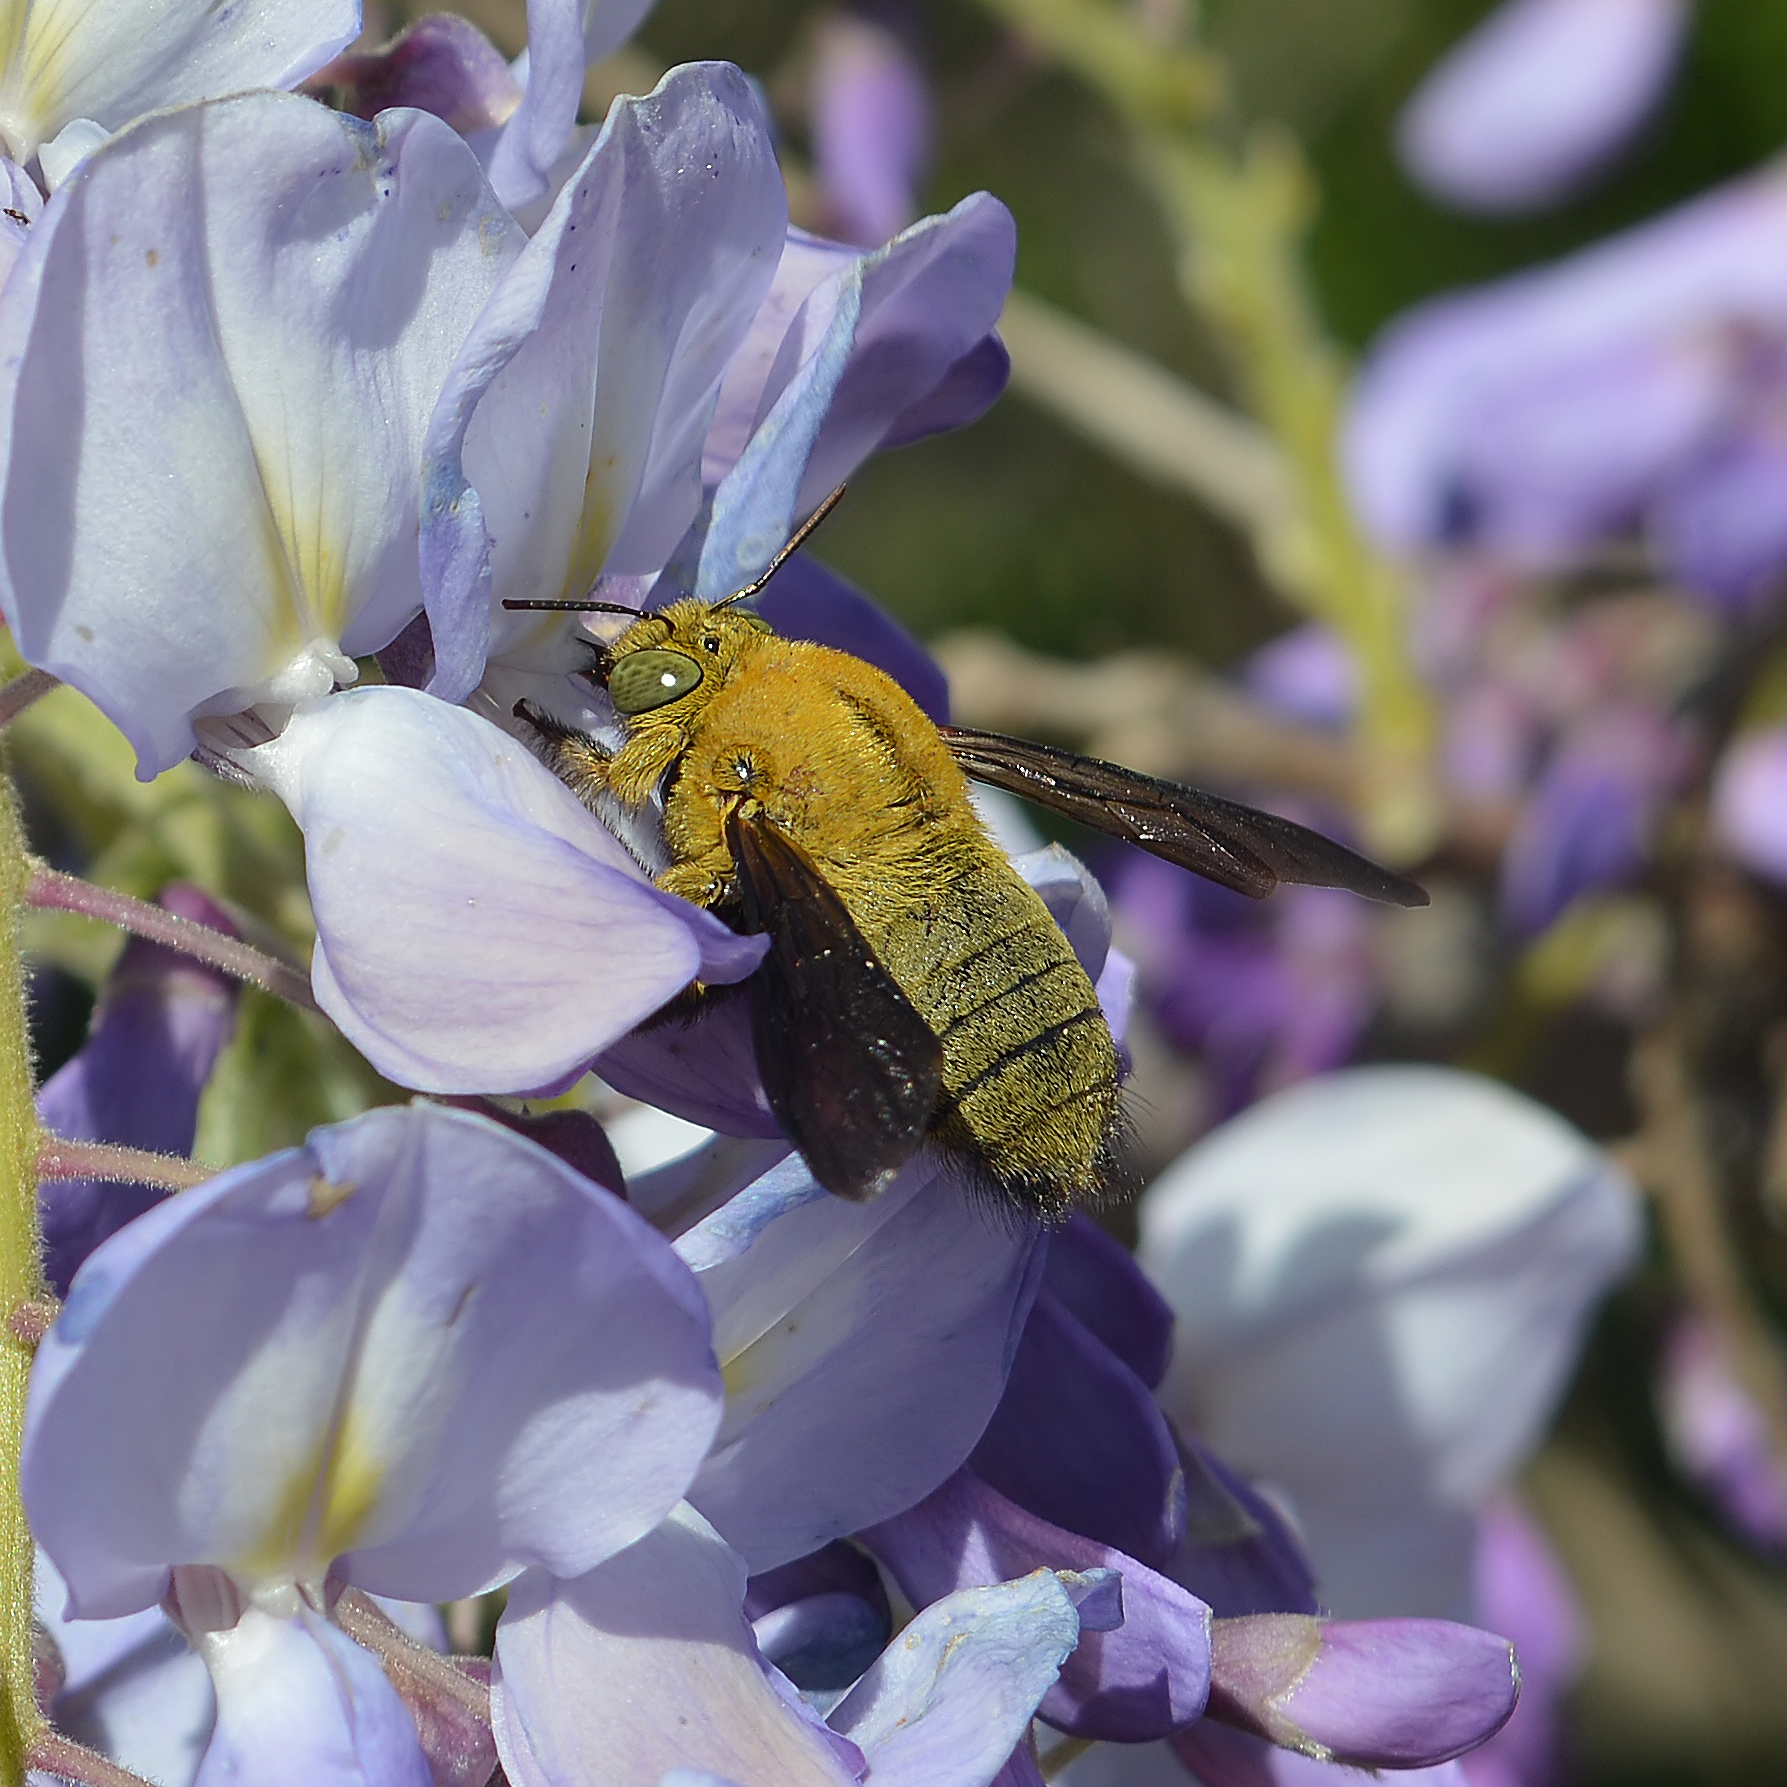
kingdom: Animalia
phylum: Arthropoda
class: Insecta
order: Hymenoptera
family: Apidae
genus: Xylocopa
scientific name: Xylocopa pubescens
